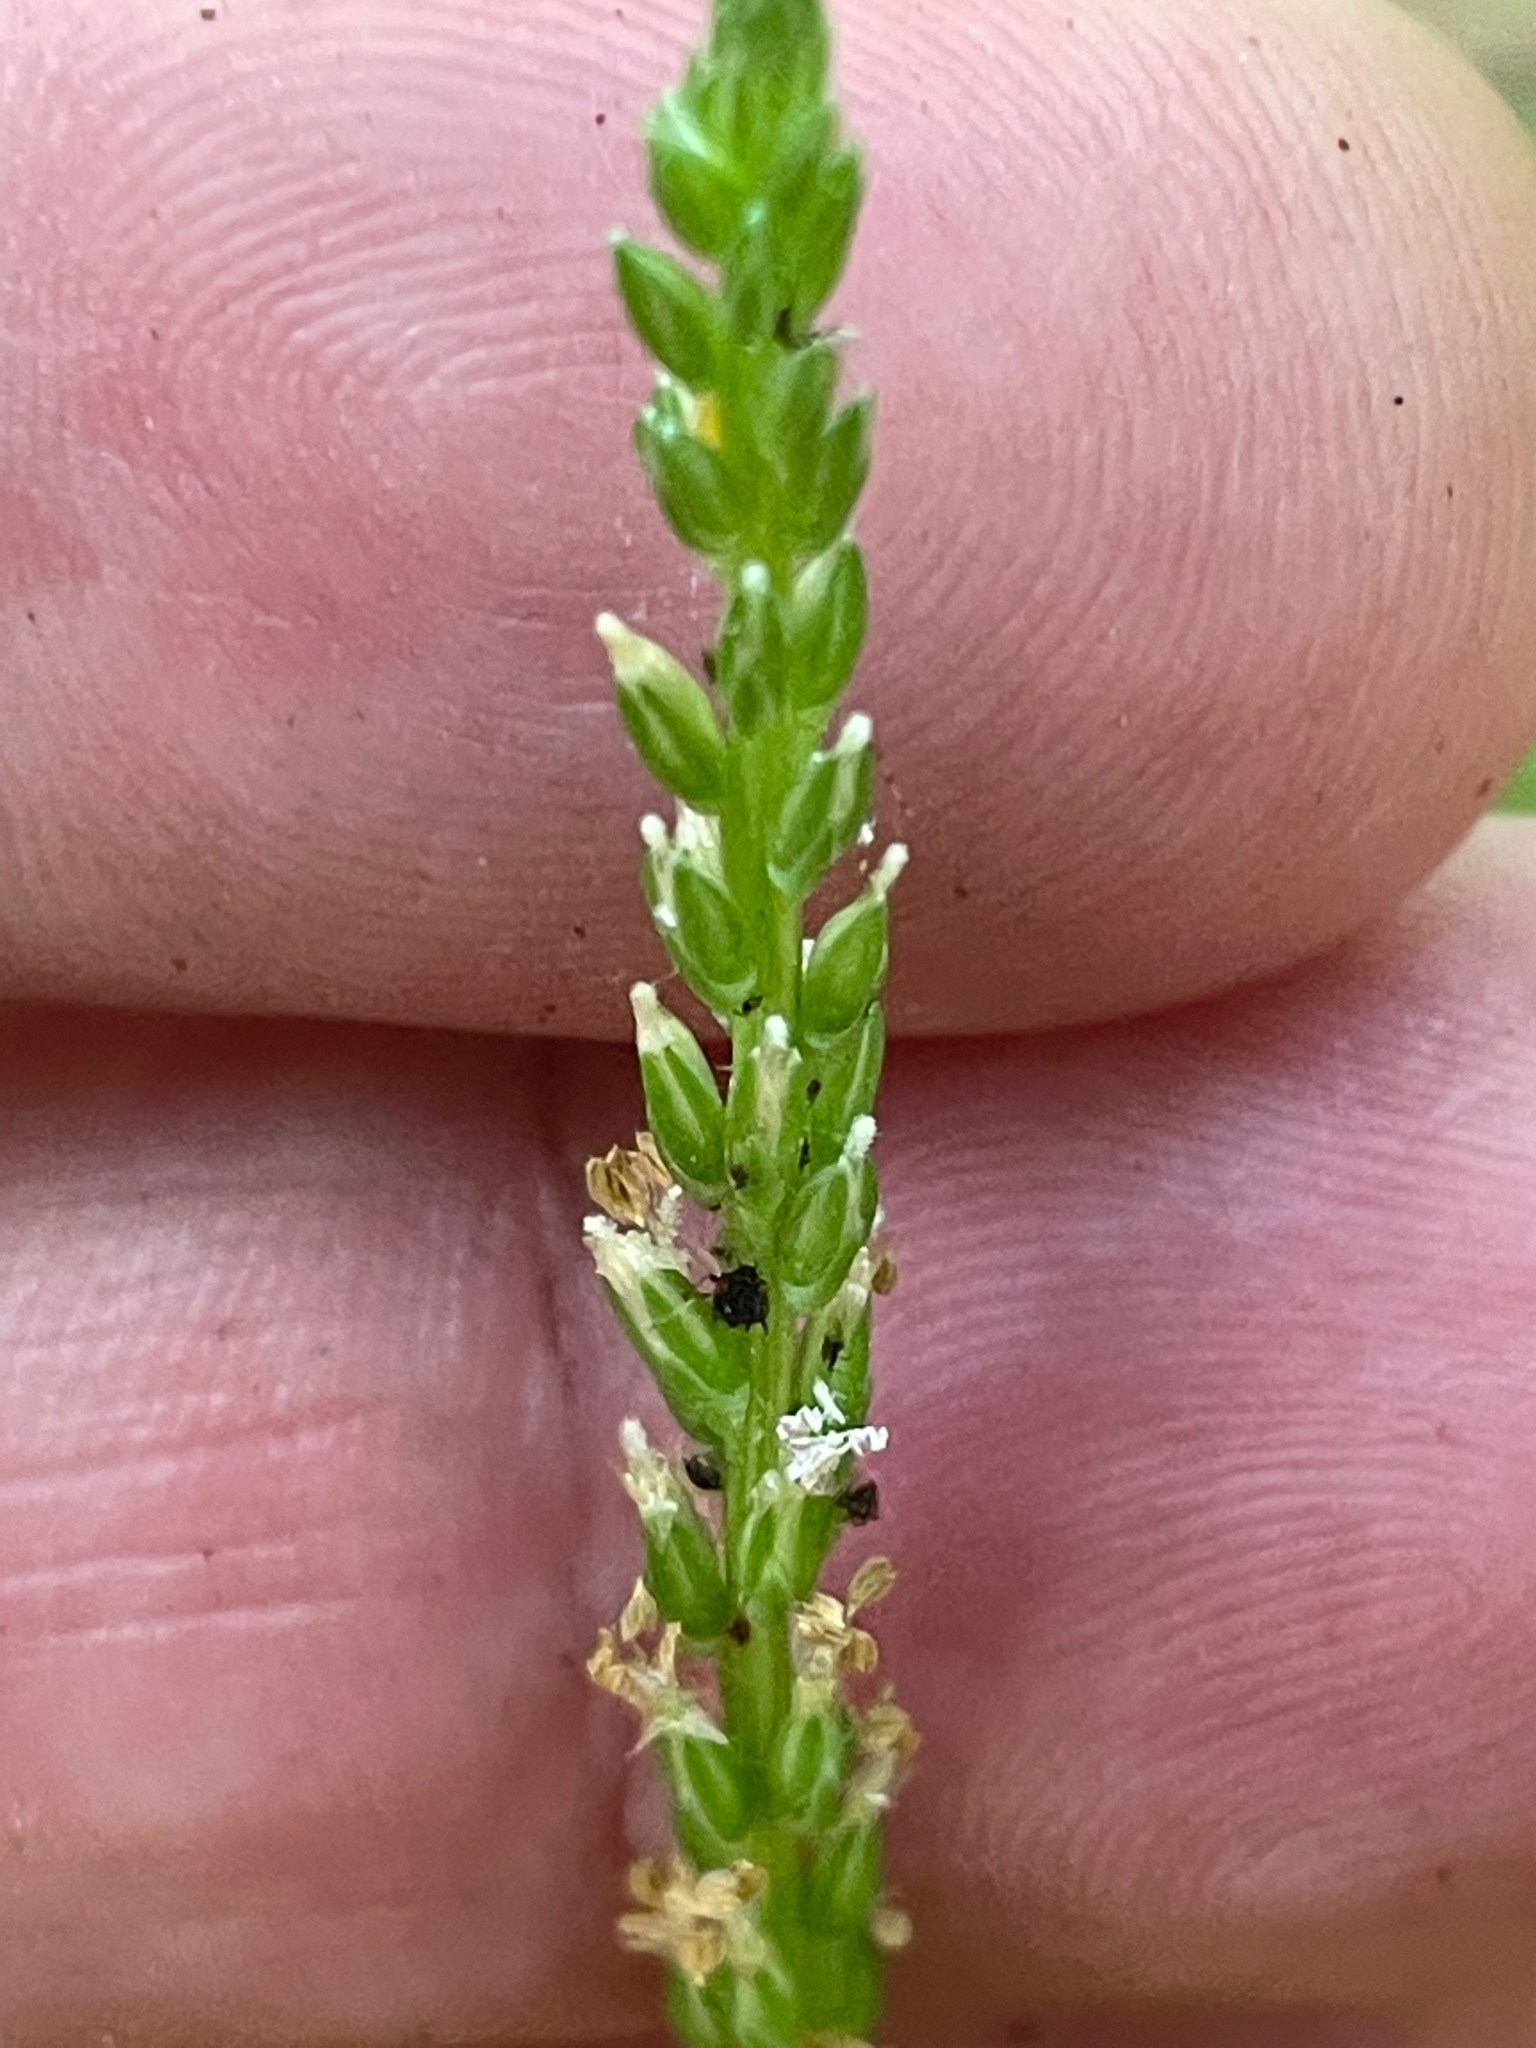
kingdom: Plantae
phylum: Tracheophyta
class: Magnoliopsida
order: Lamiales
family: Plantaginaceae
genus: Plantago
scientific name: Plantago rugelii
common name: American plantain
